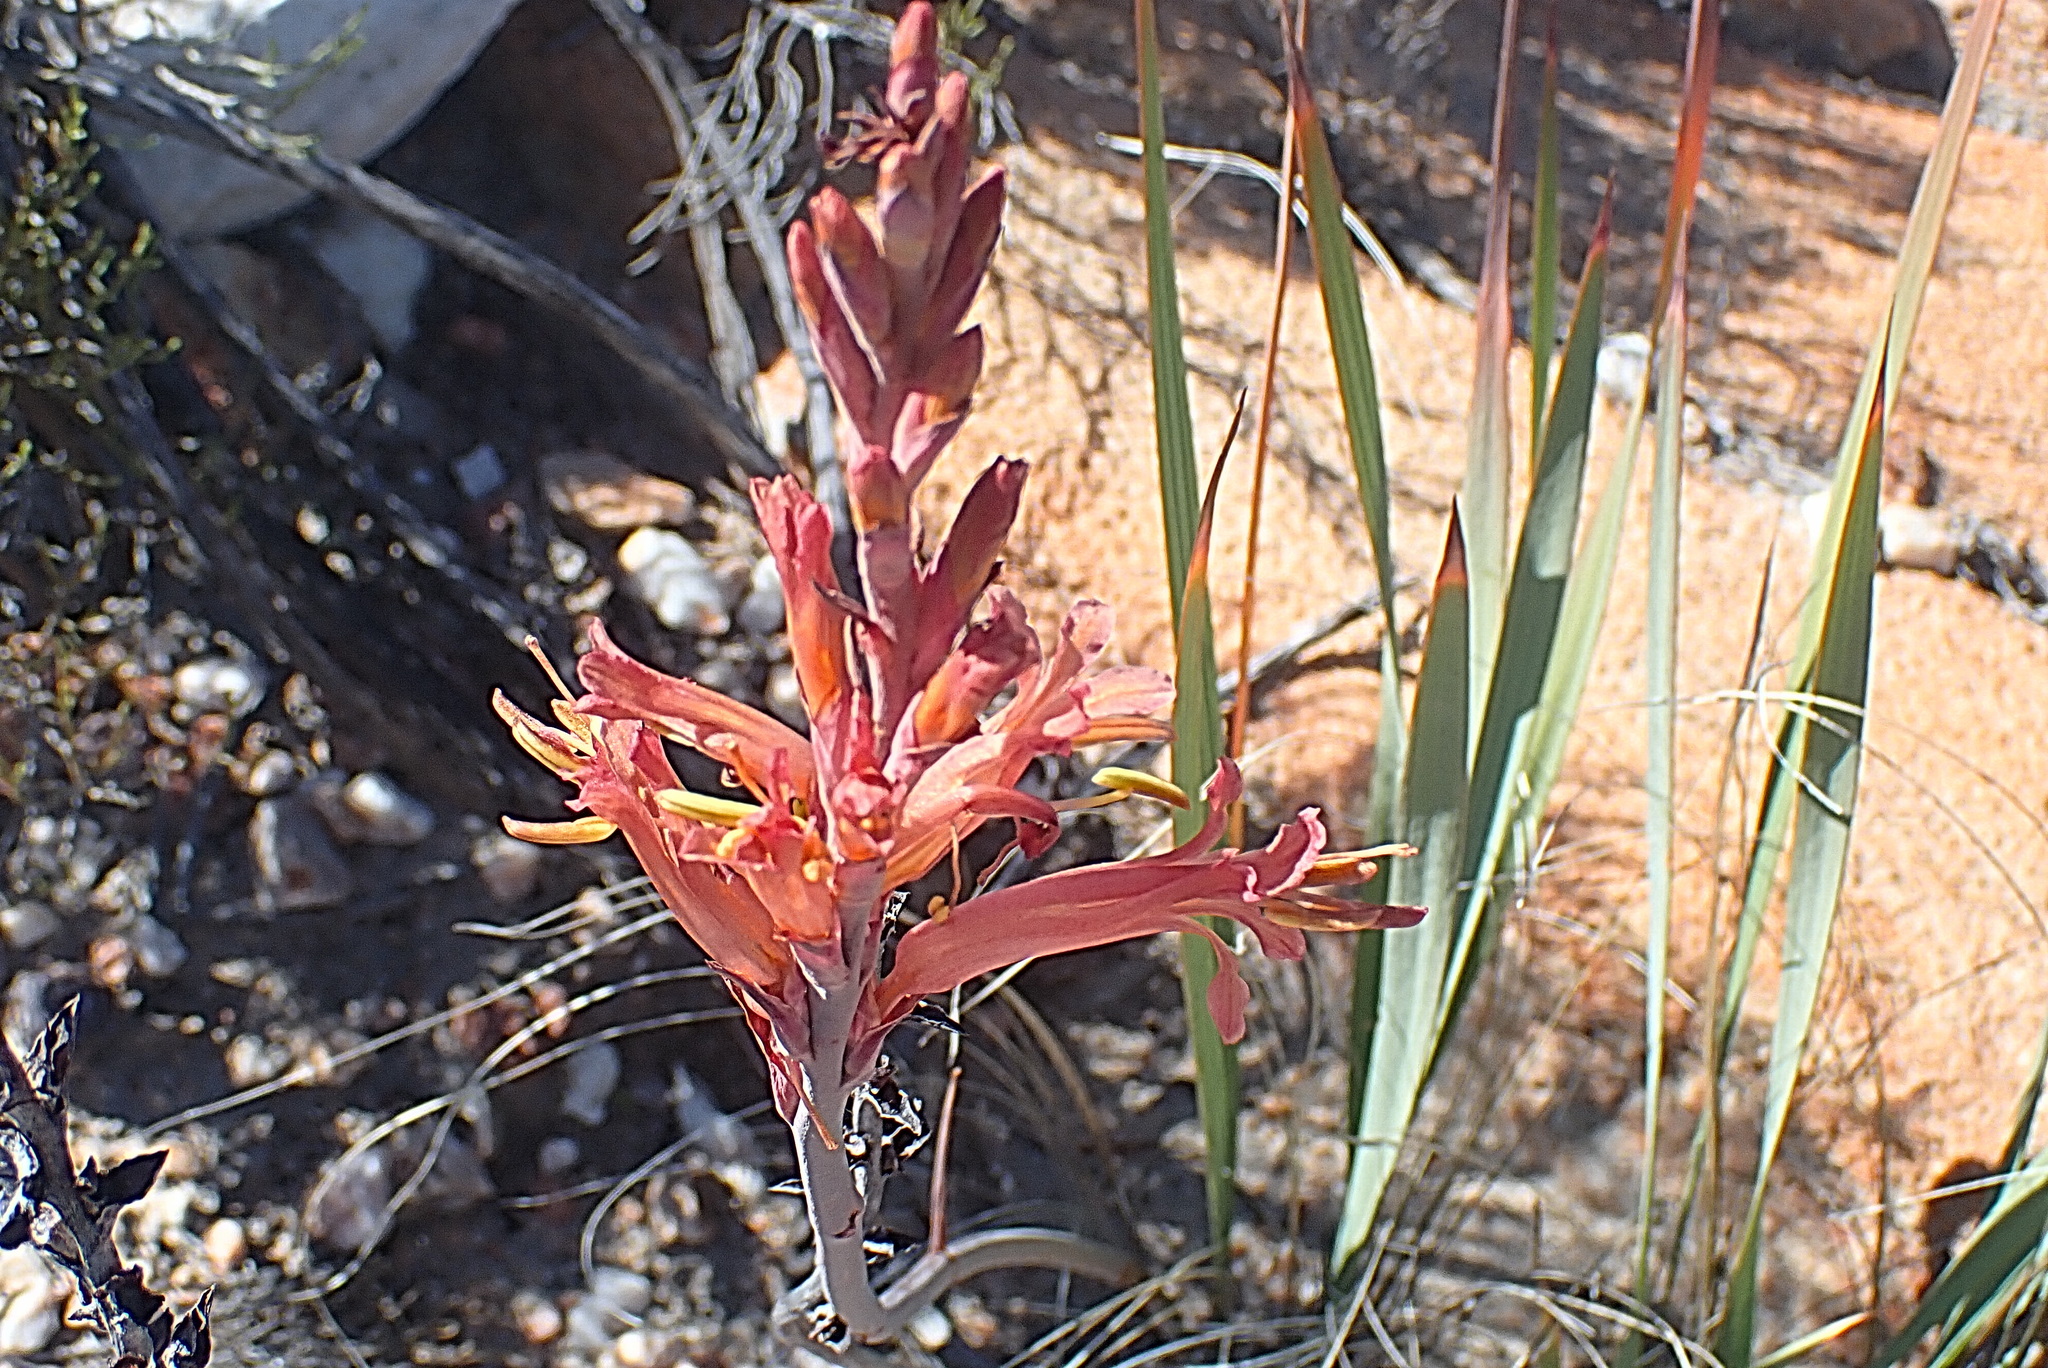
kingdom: Plantae
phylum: Tracheophyta
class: Liliopsida
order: Asparagales
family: Iridaceae
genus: Tritoniopsis
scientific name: Tritoniopsis antholyza
